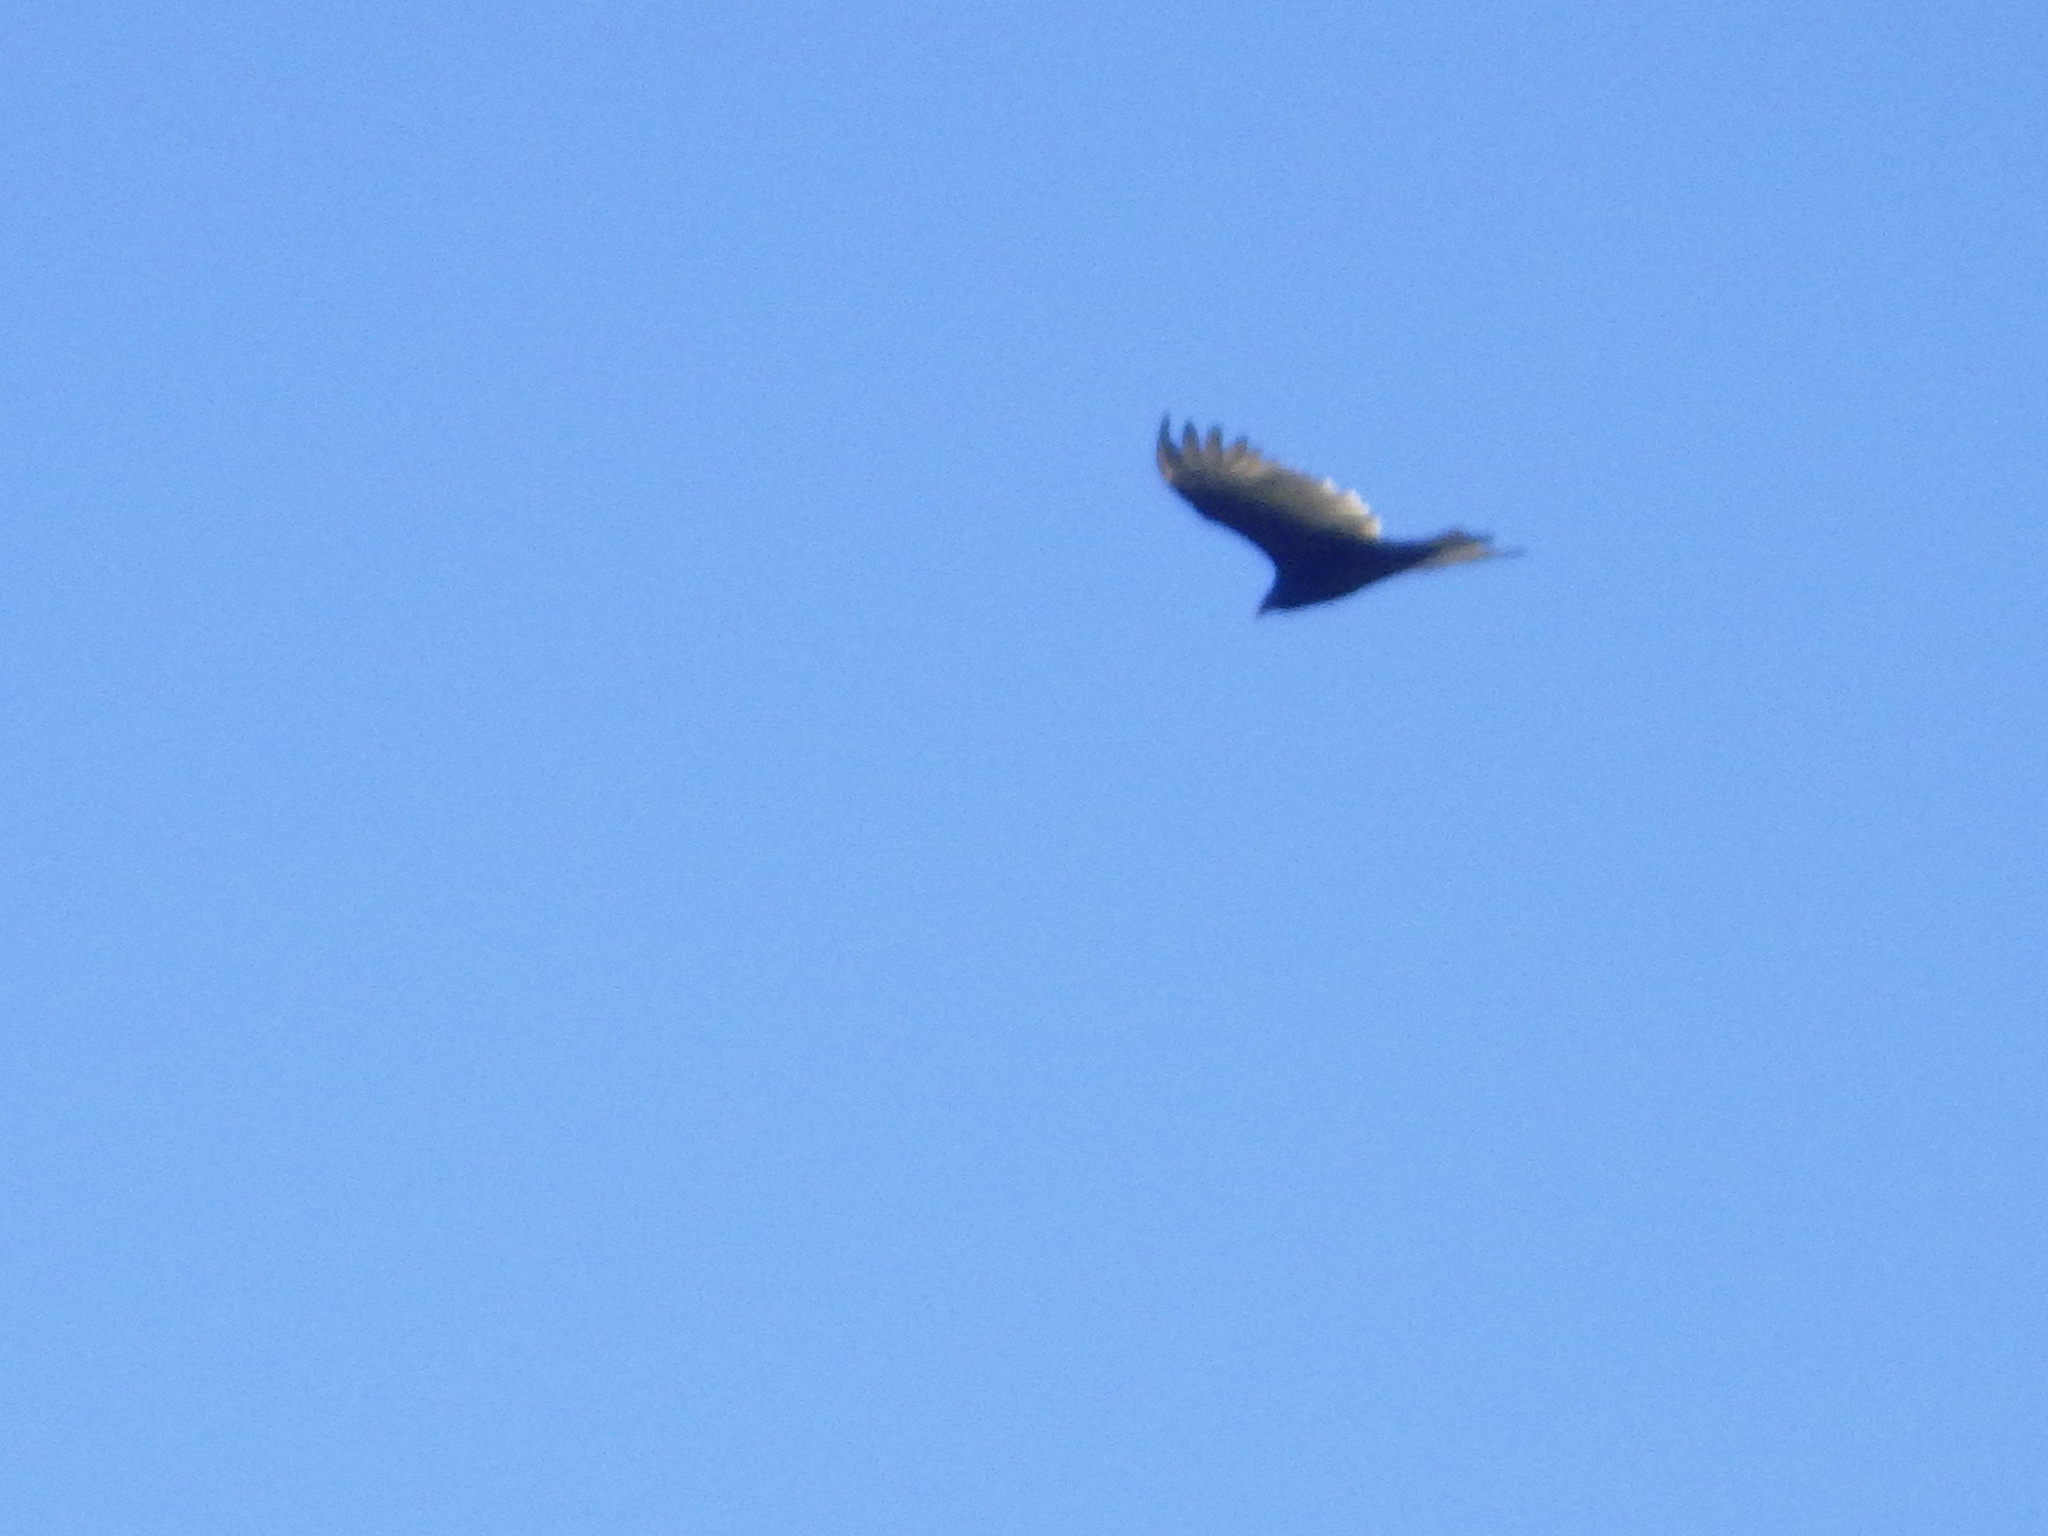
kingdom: Animalia
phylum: Chordata
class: Aves
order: Accipitriformes
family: Cathartidae
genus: Cathartes
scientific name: Cathartes aura
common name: Turkey vulture
